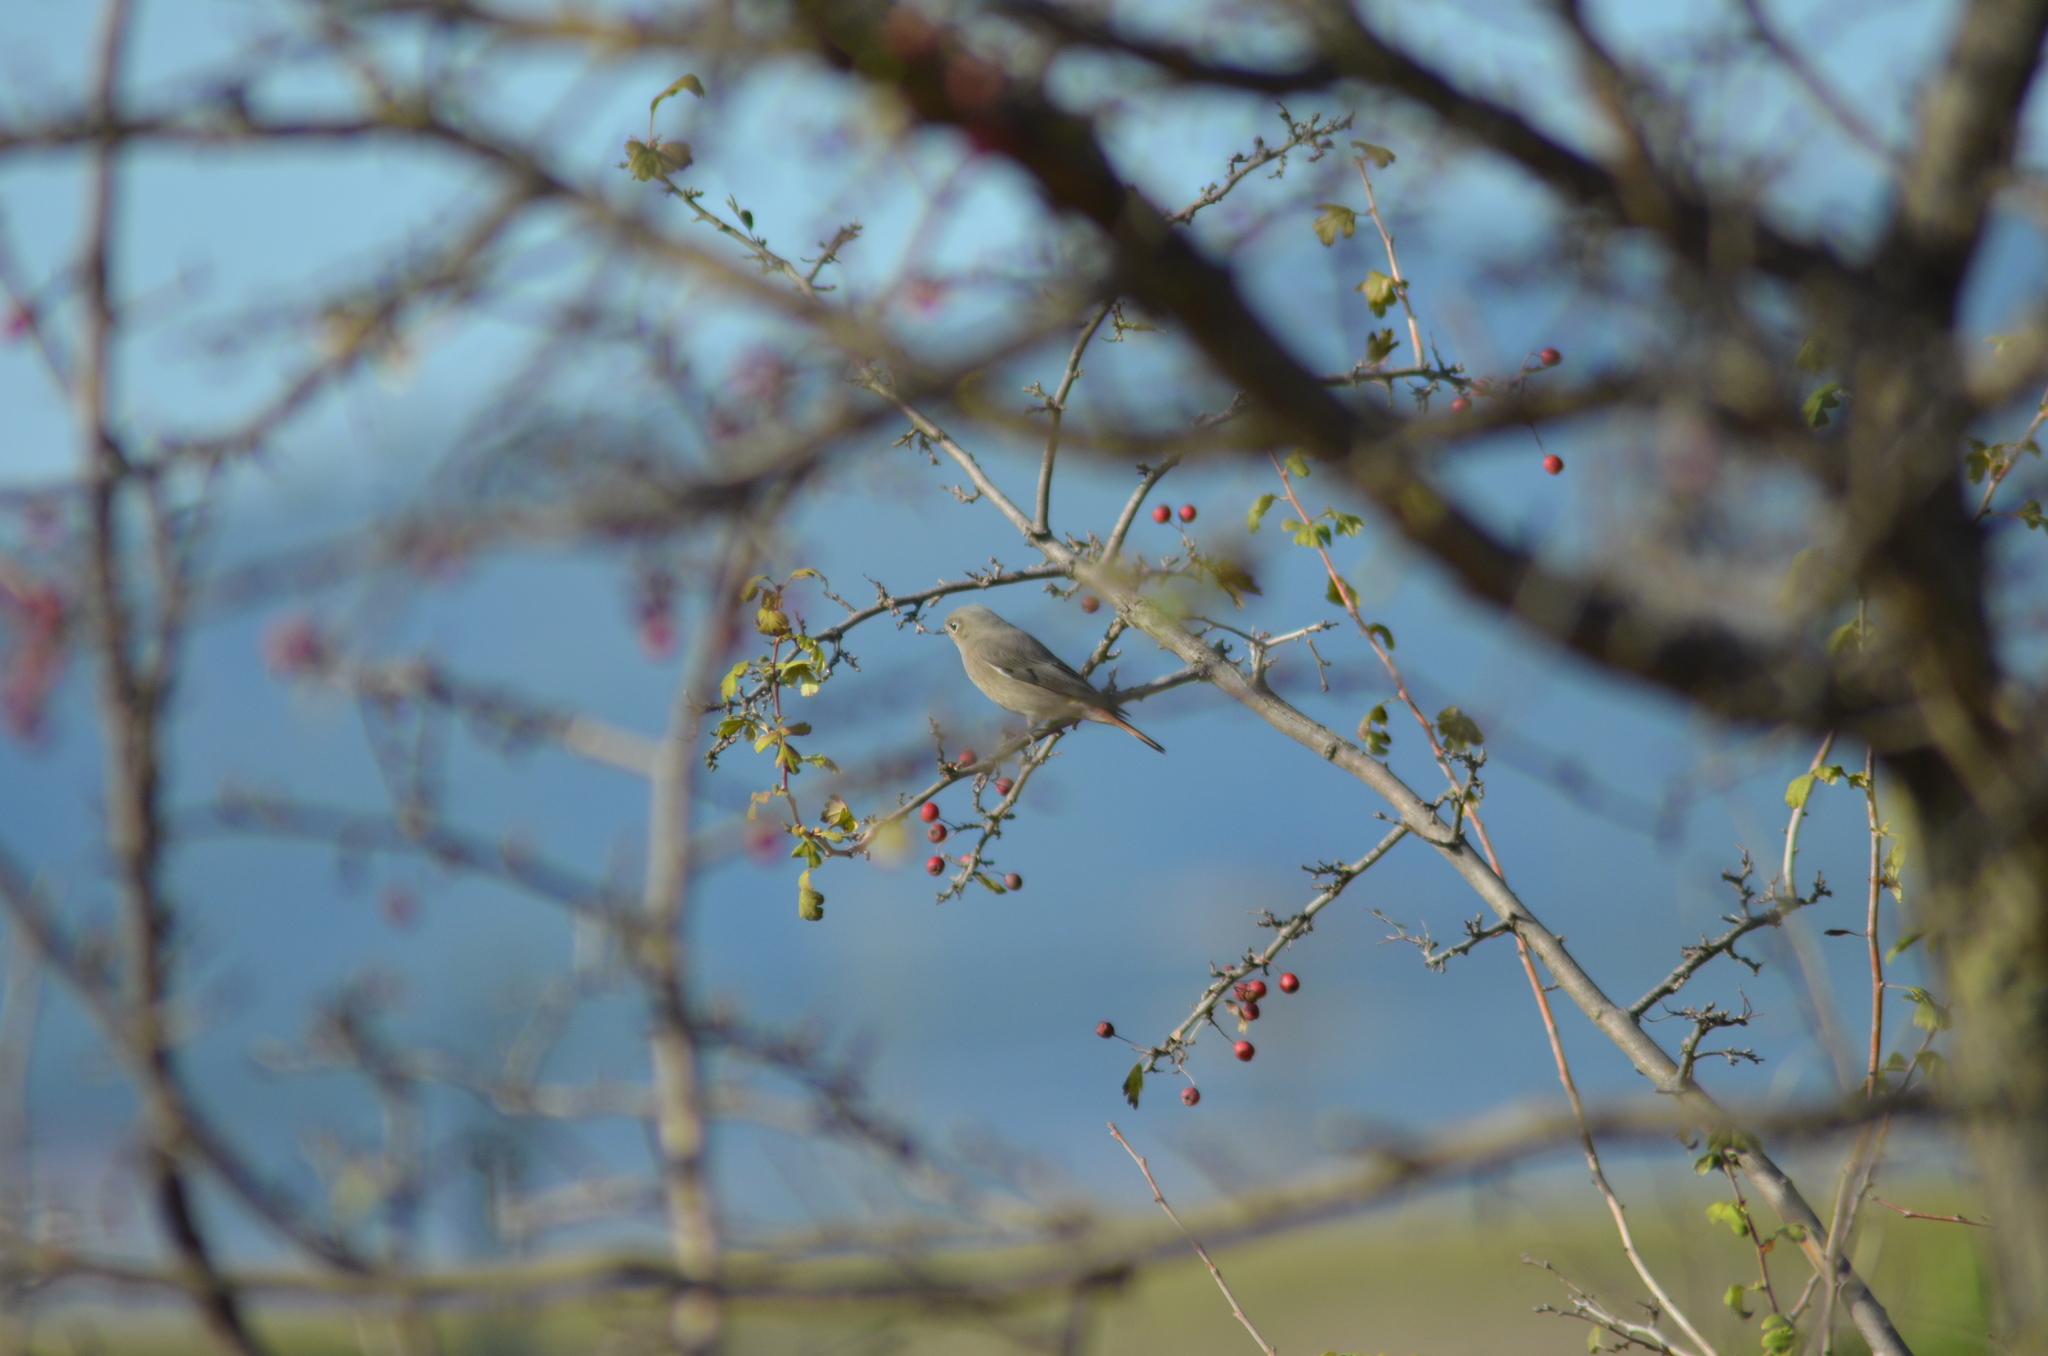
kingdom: Animalia
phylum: Chordata
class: Aves
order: Passeriformes
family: Muscicapidae
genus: Phoenicurus
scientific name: Phoenicurus ochruros
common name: Black redstart
